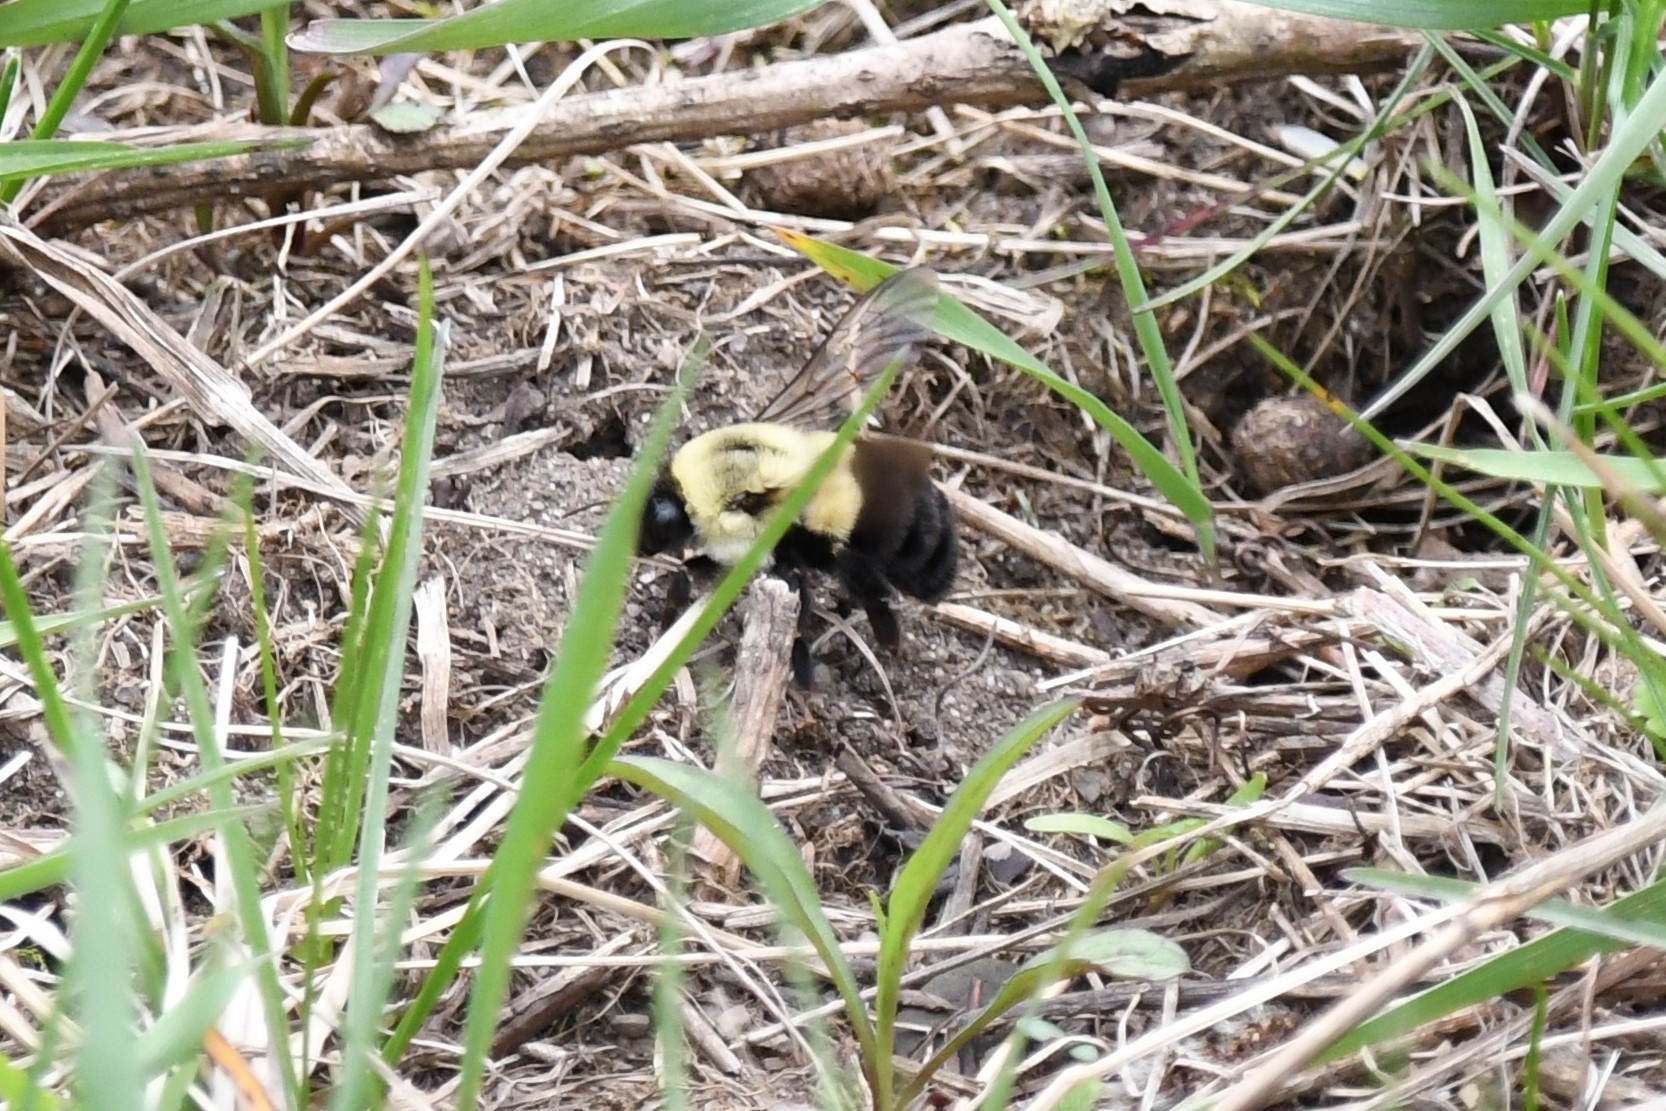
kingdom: Animalia
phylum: Arthropoda
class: Insecta
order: Hymenoptera
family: Apidae
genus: Bombus
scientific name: Bombus impatiens
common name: Common eastern bumble bee
